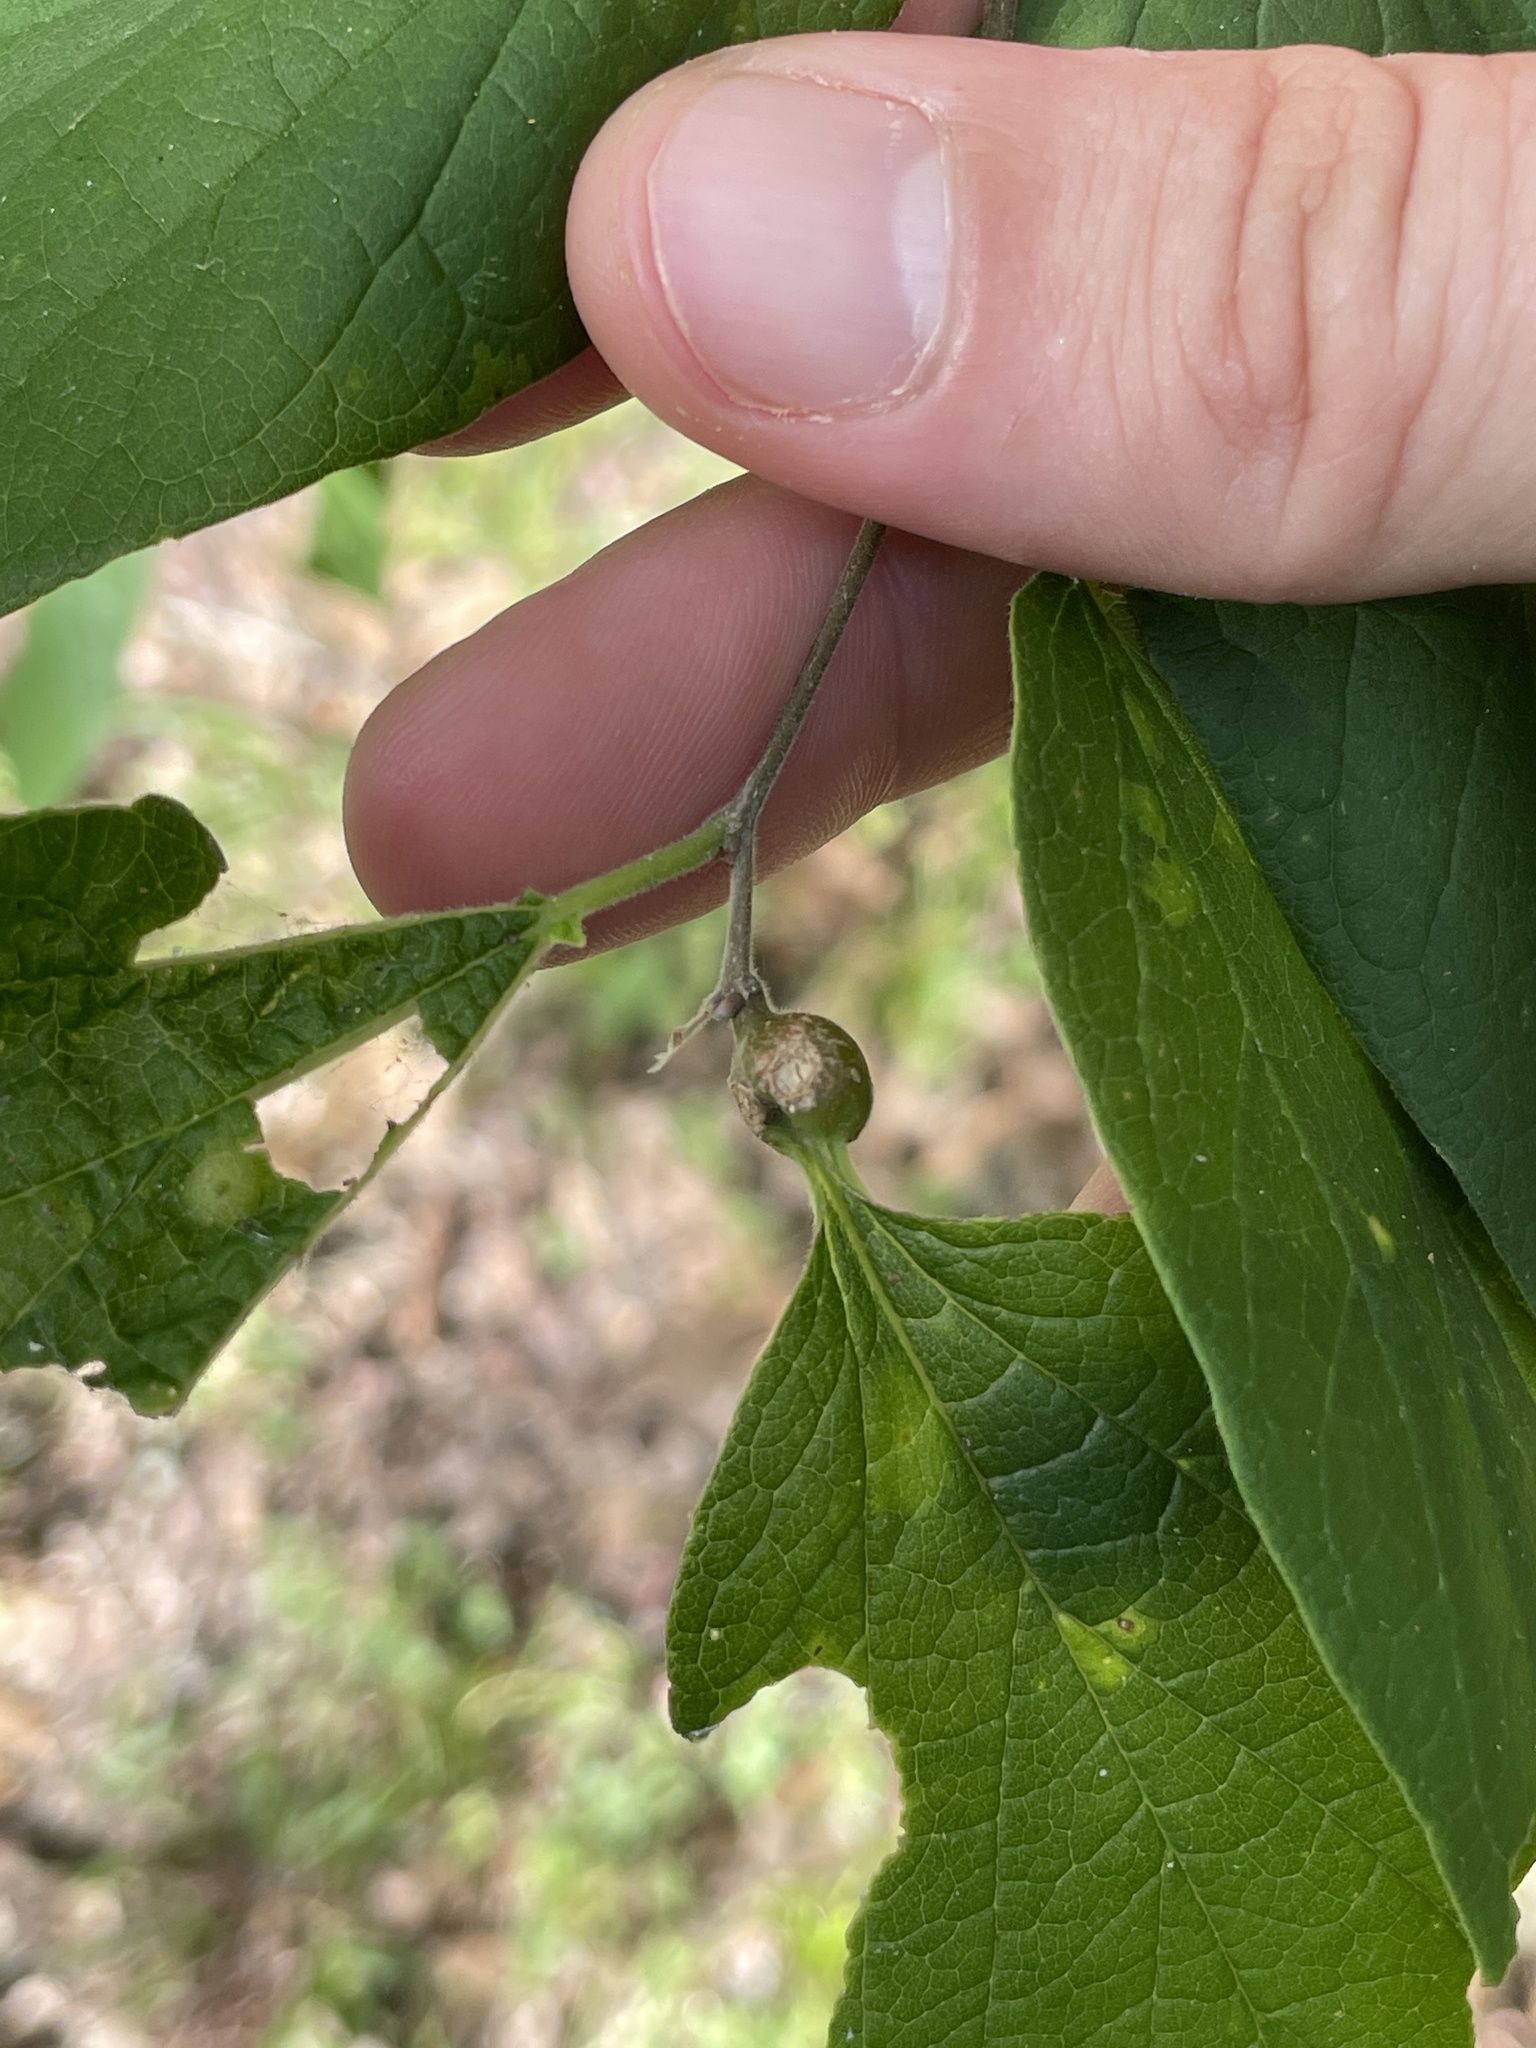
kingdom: Animalia
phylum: Arthropoda
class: Insecta
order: Hemiptera
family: Aphalaridae
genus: Pachypsylla
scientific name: Pachypsylla venusta
